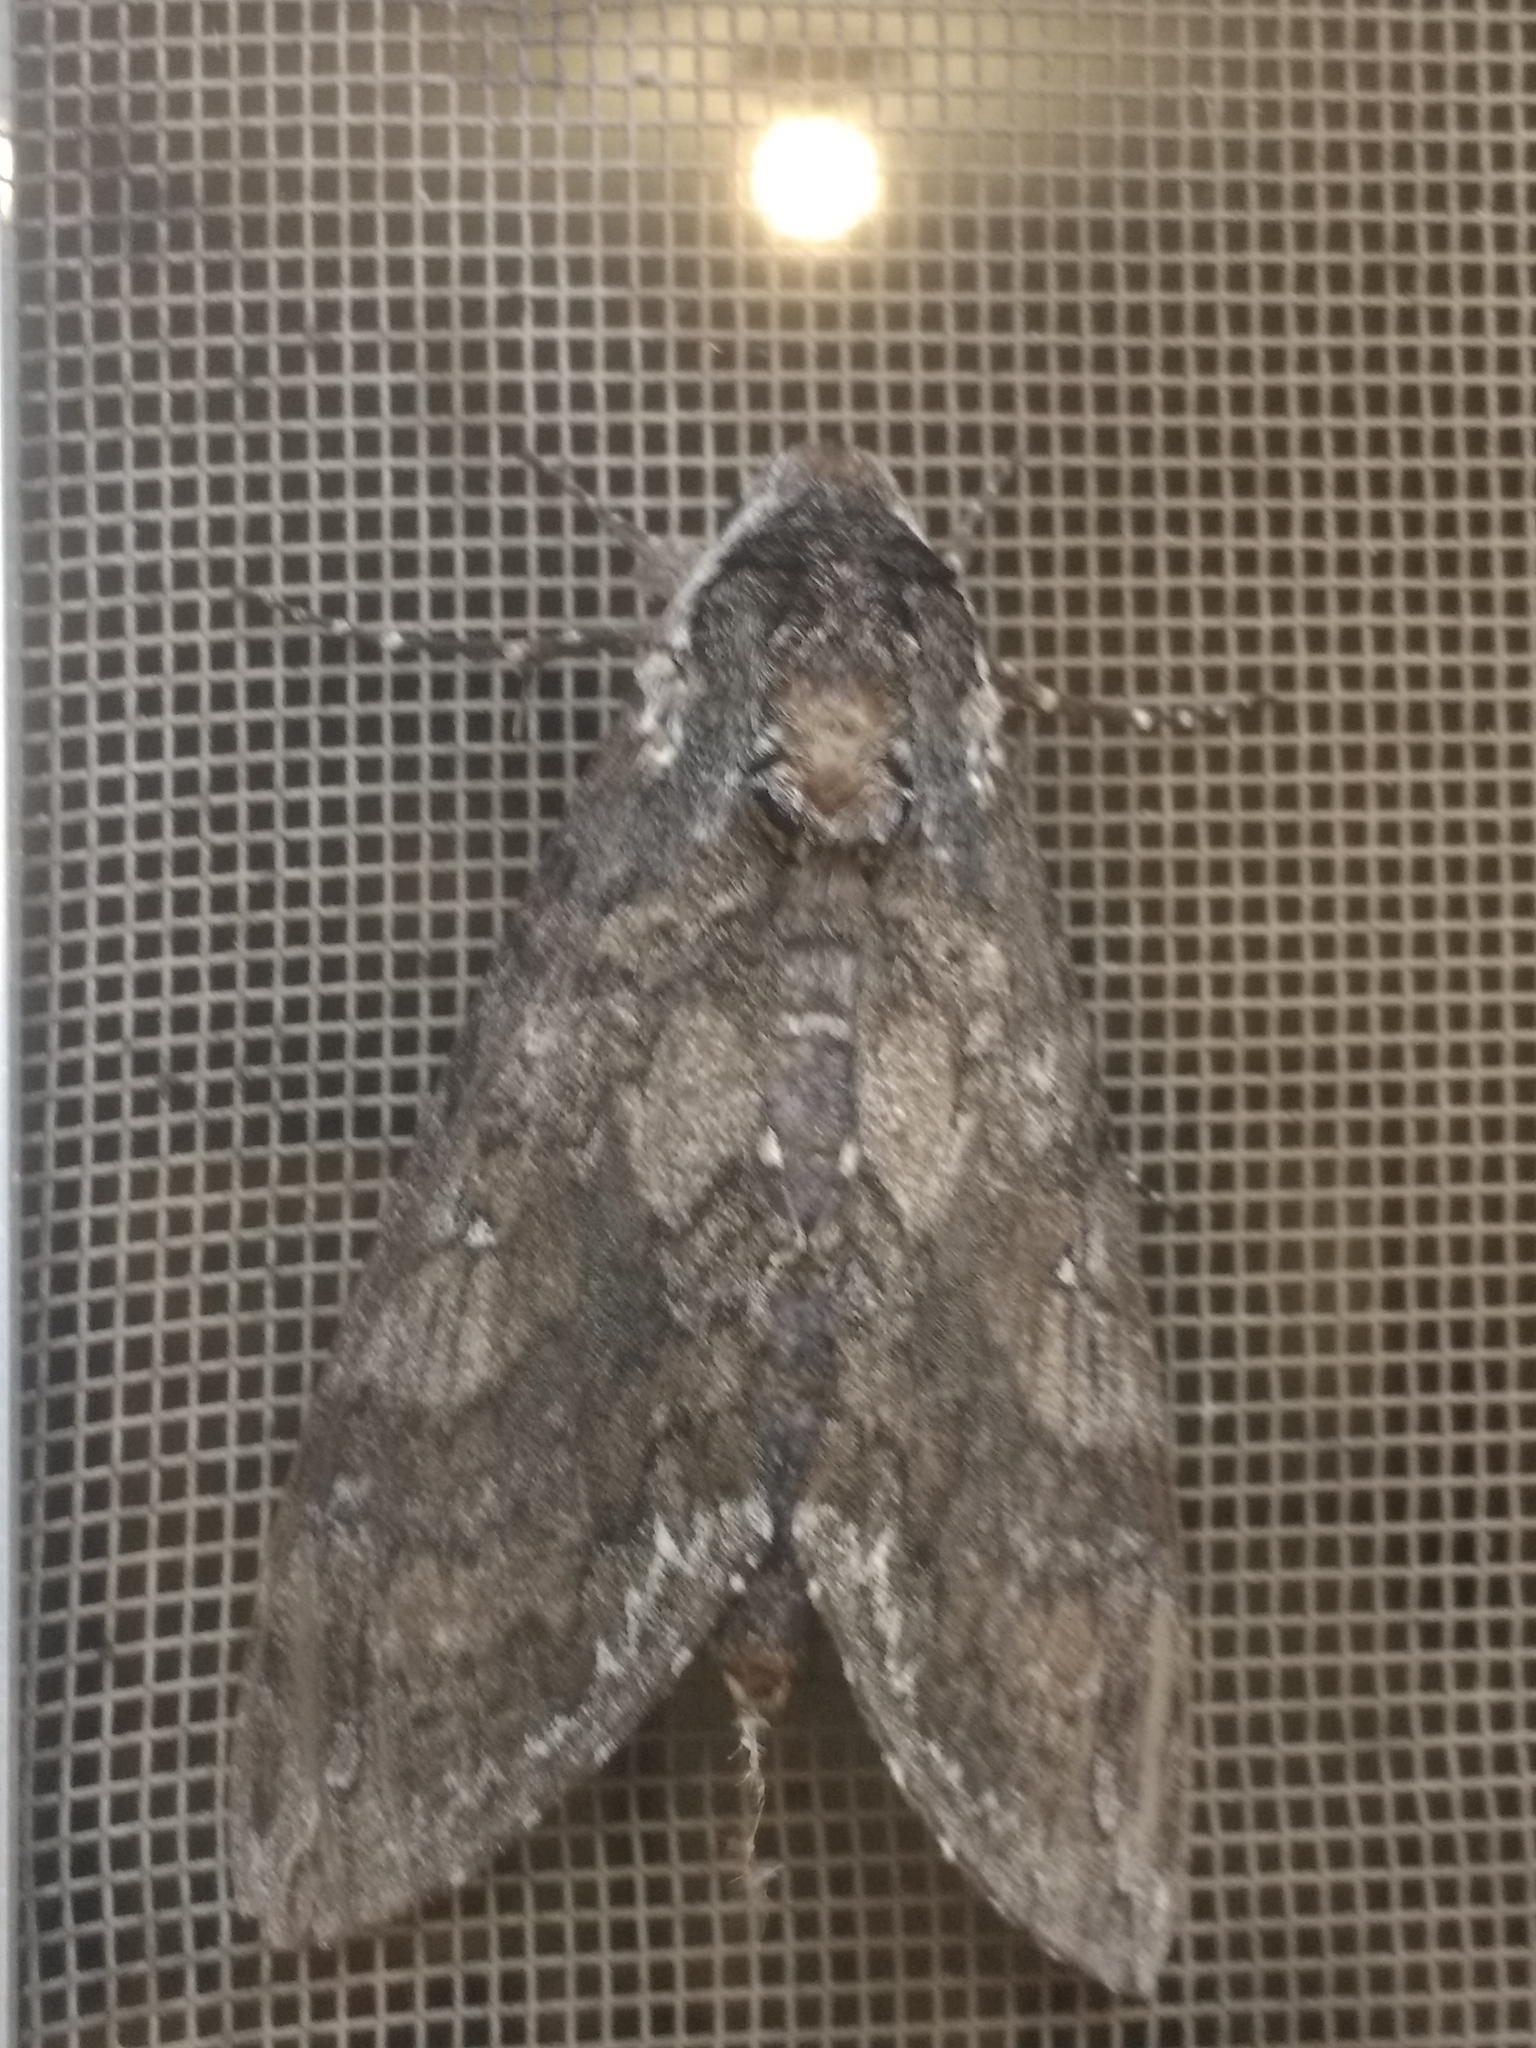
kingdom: Animalia
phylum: Arthropoda
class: Insecta
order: Lepidoptera
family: Sphingidae
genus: Manduca
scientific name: Manduca sexta
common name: Carolina sphinx
